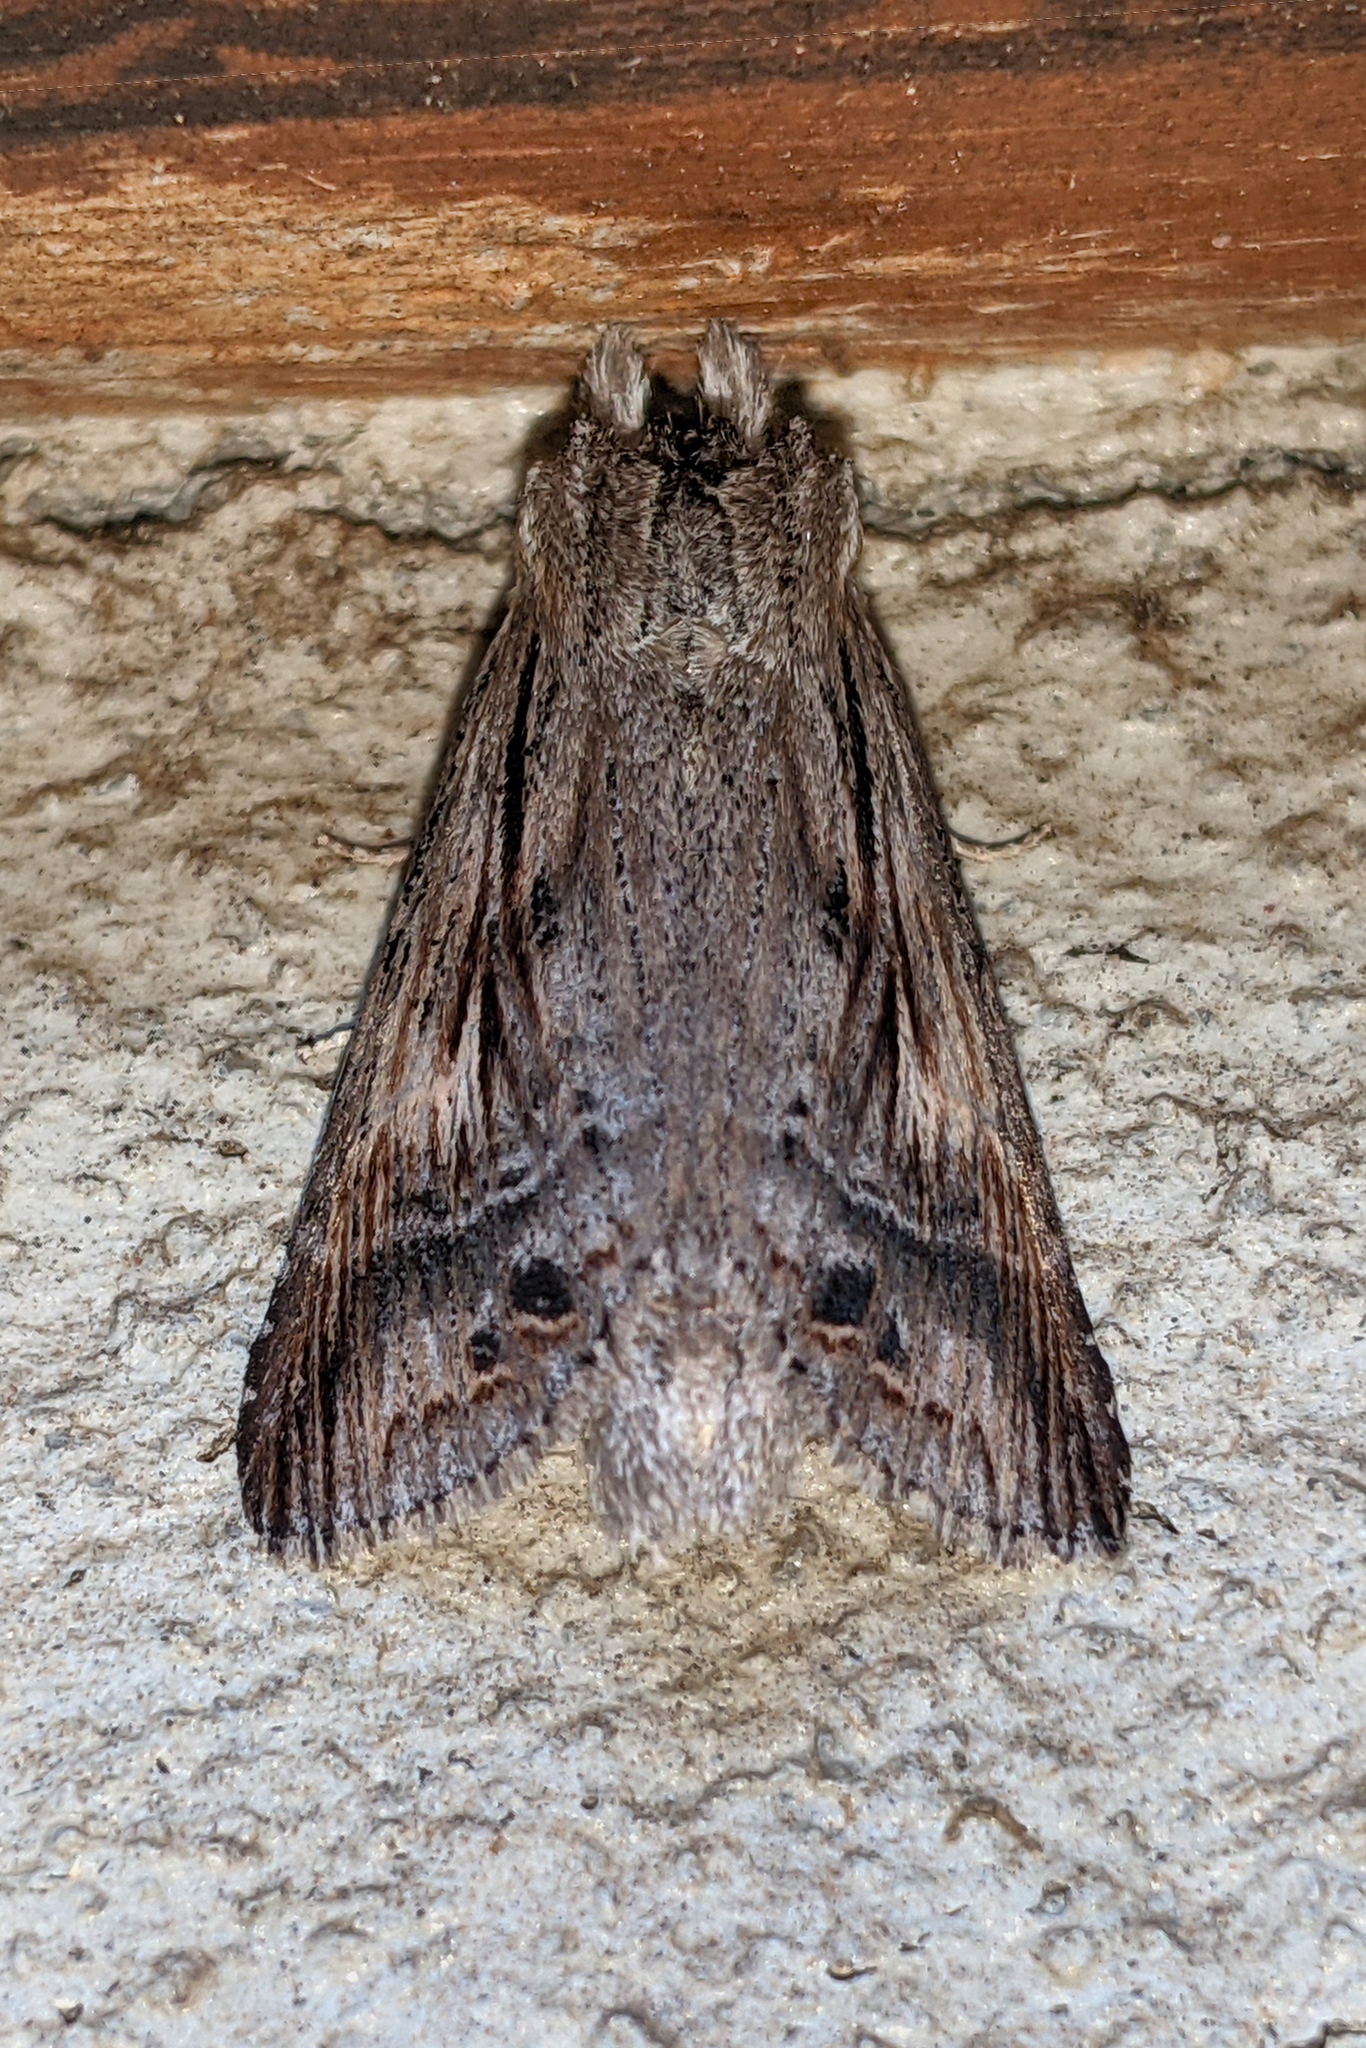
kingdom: Animalia
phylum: Arthropoda
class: Insecta
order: Lepidoptera
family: Notodontidae
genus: Dasylophia
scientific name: Dasylophia anguina
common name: Black-spotted prominent
